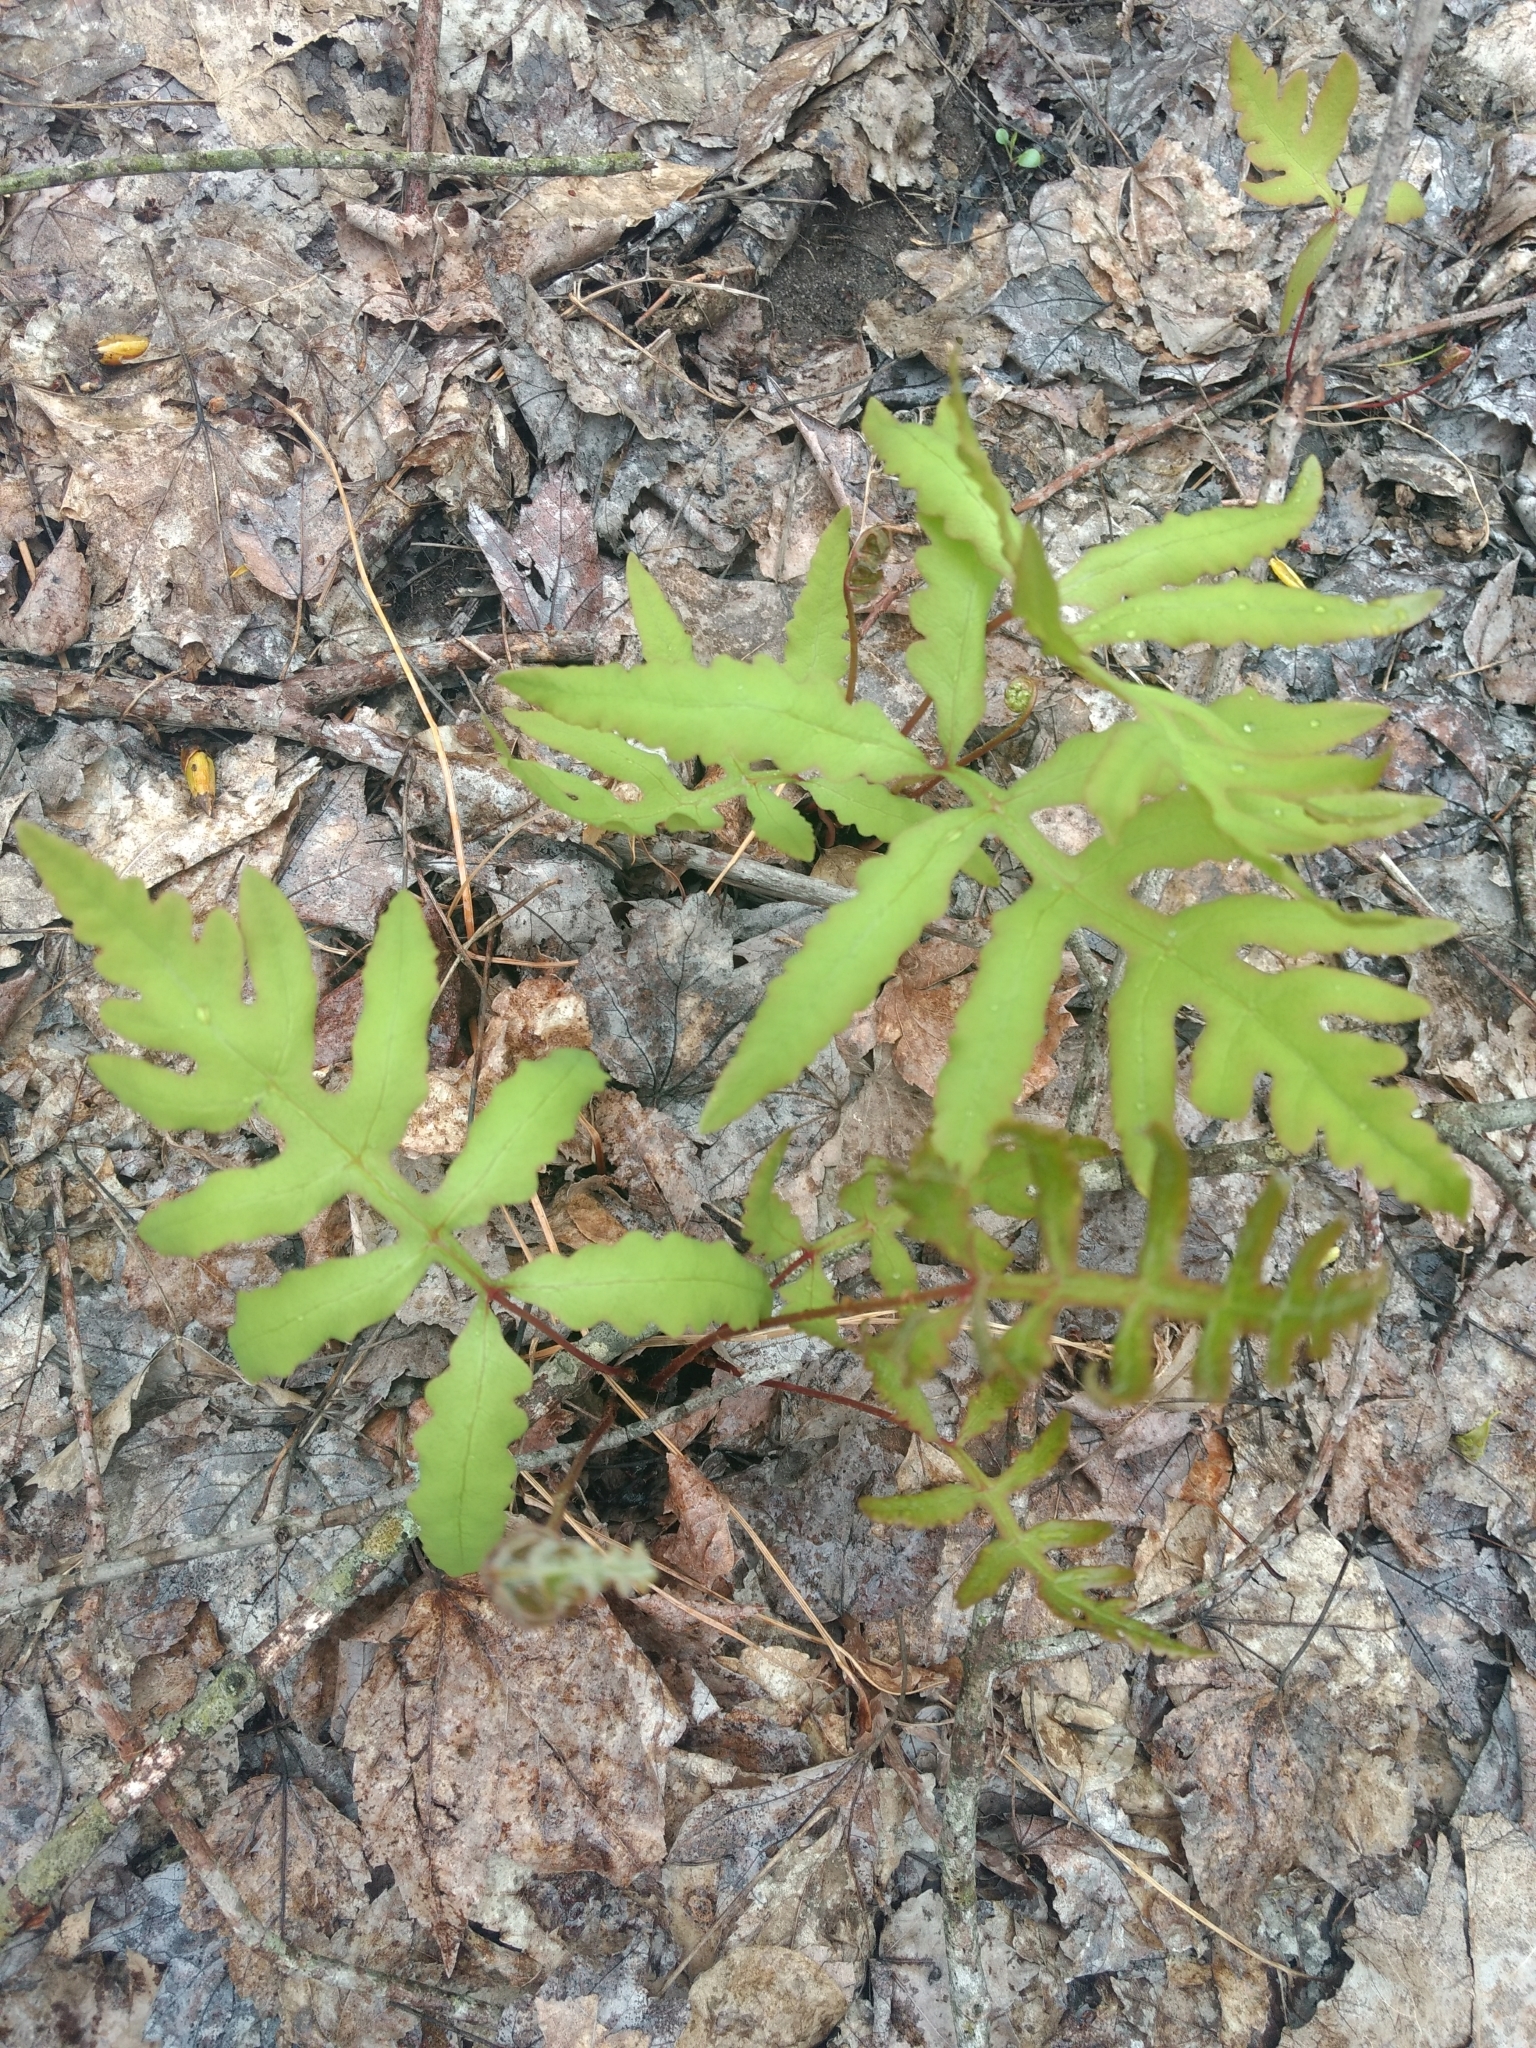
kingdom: Plantae
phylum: Tracheophyta
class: Polypodiopsida
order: Polypodiales
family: Onocleaceae
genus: Onoclea
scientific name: Onoclea sensibilis
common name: Sensitive fern
